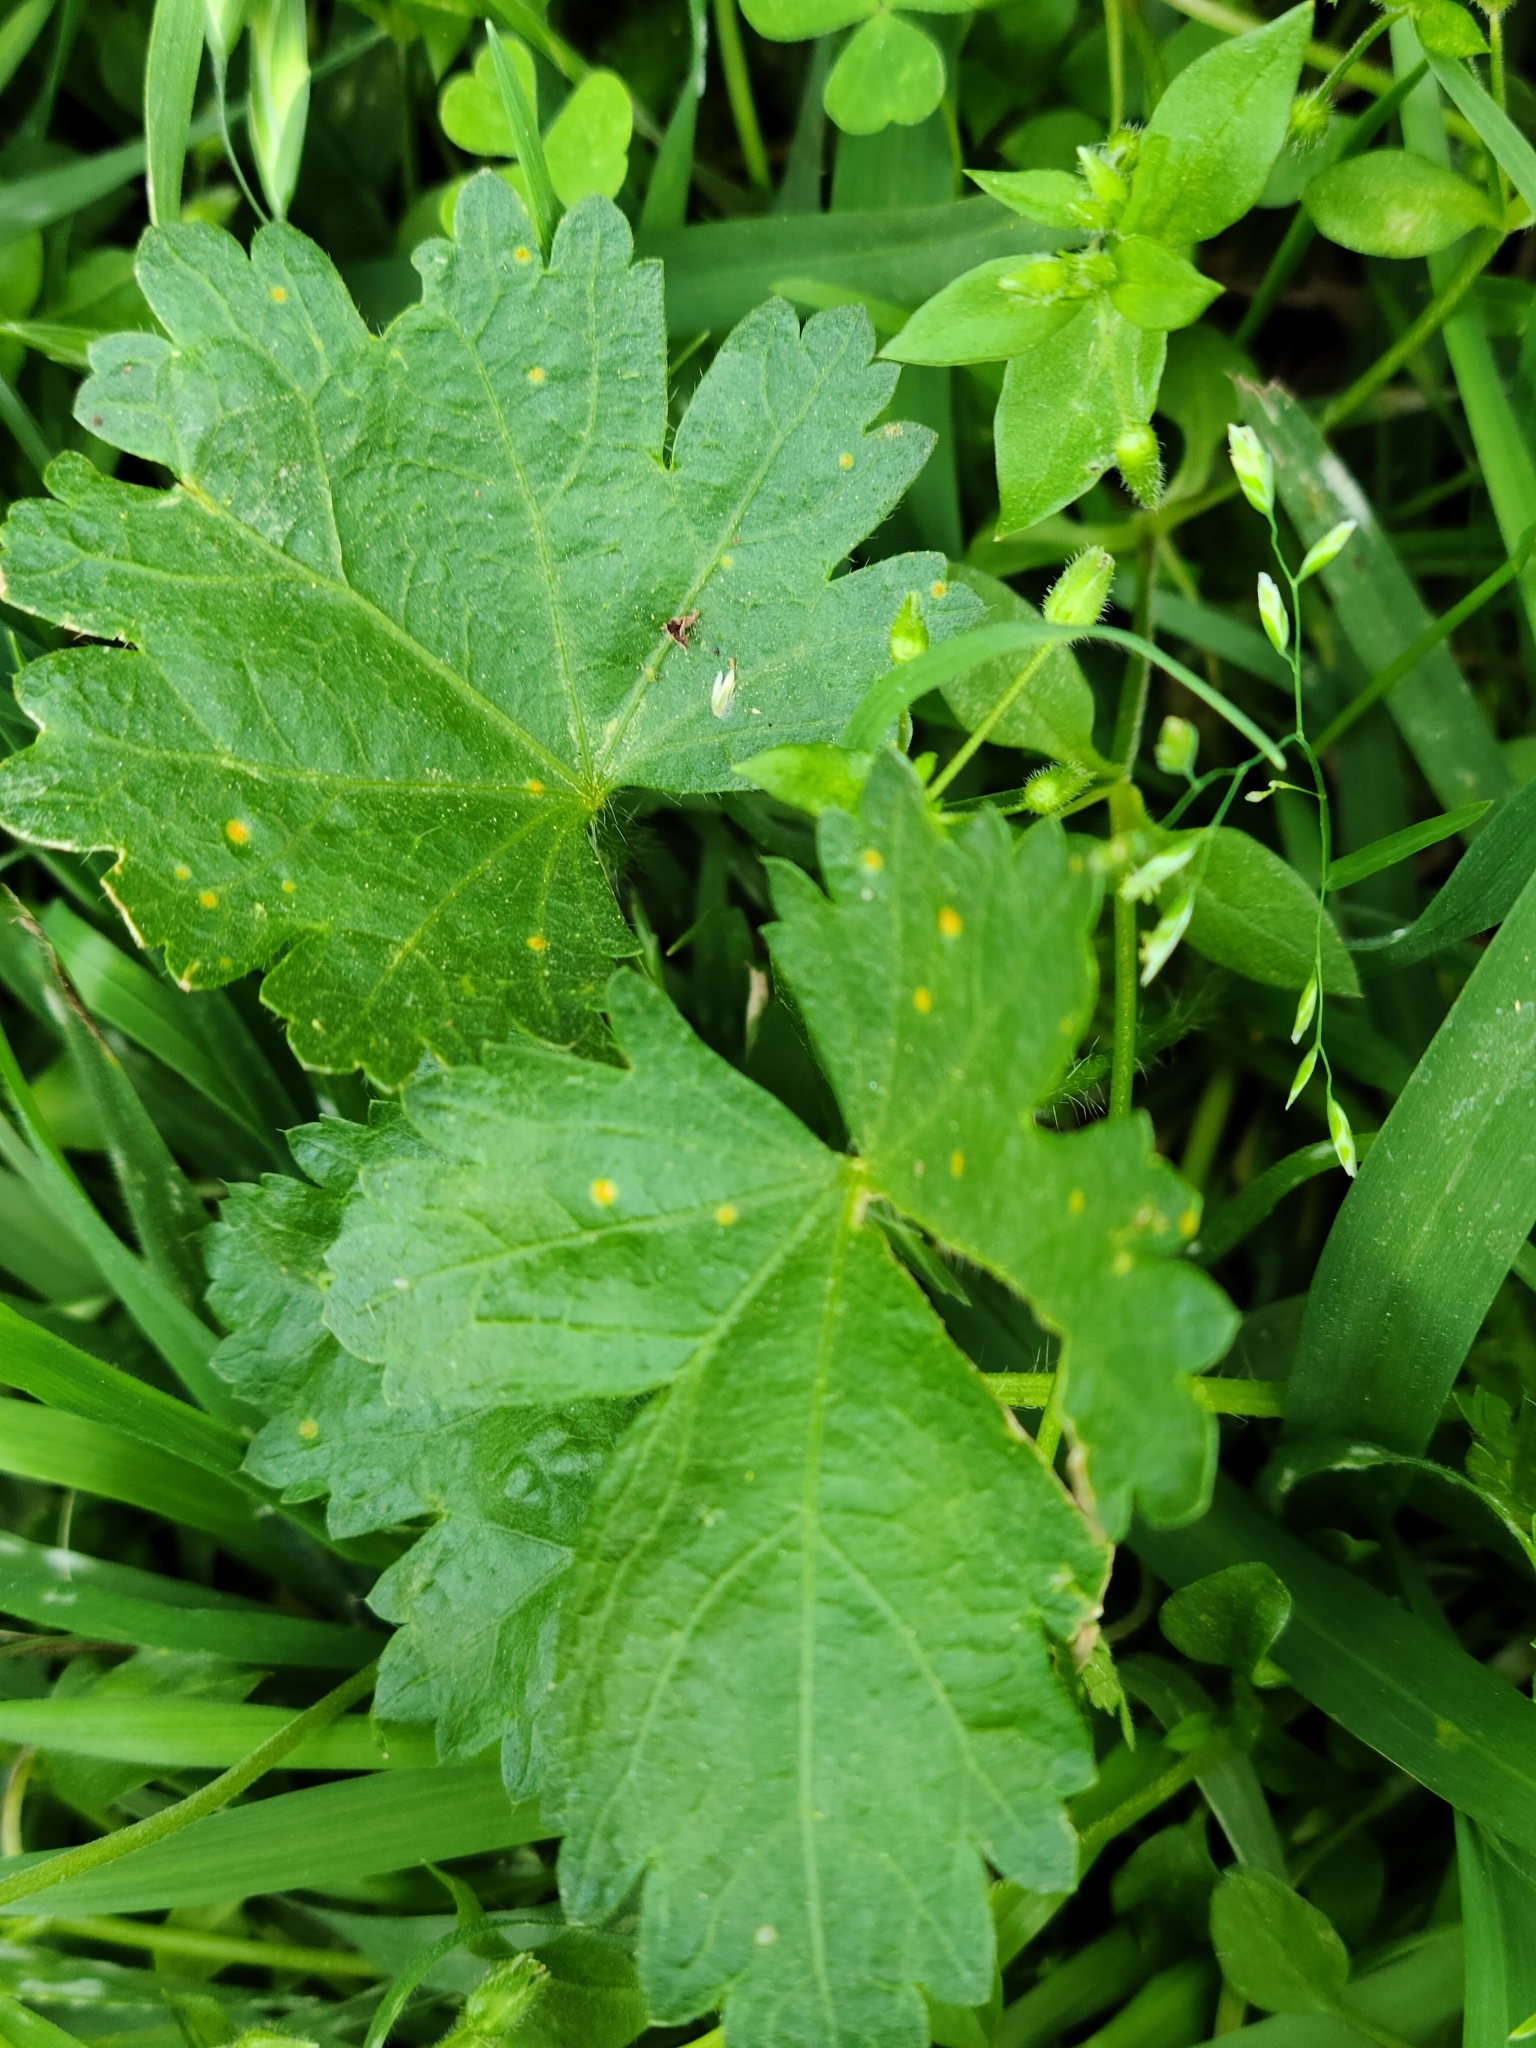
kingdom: Plantae
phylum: Tracheophyta
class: Magnoliopsida
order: Malvales
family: Malvaceae
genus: Modiola
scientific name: Modiola caroliniana
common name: Carolina bristlemallow
